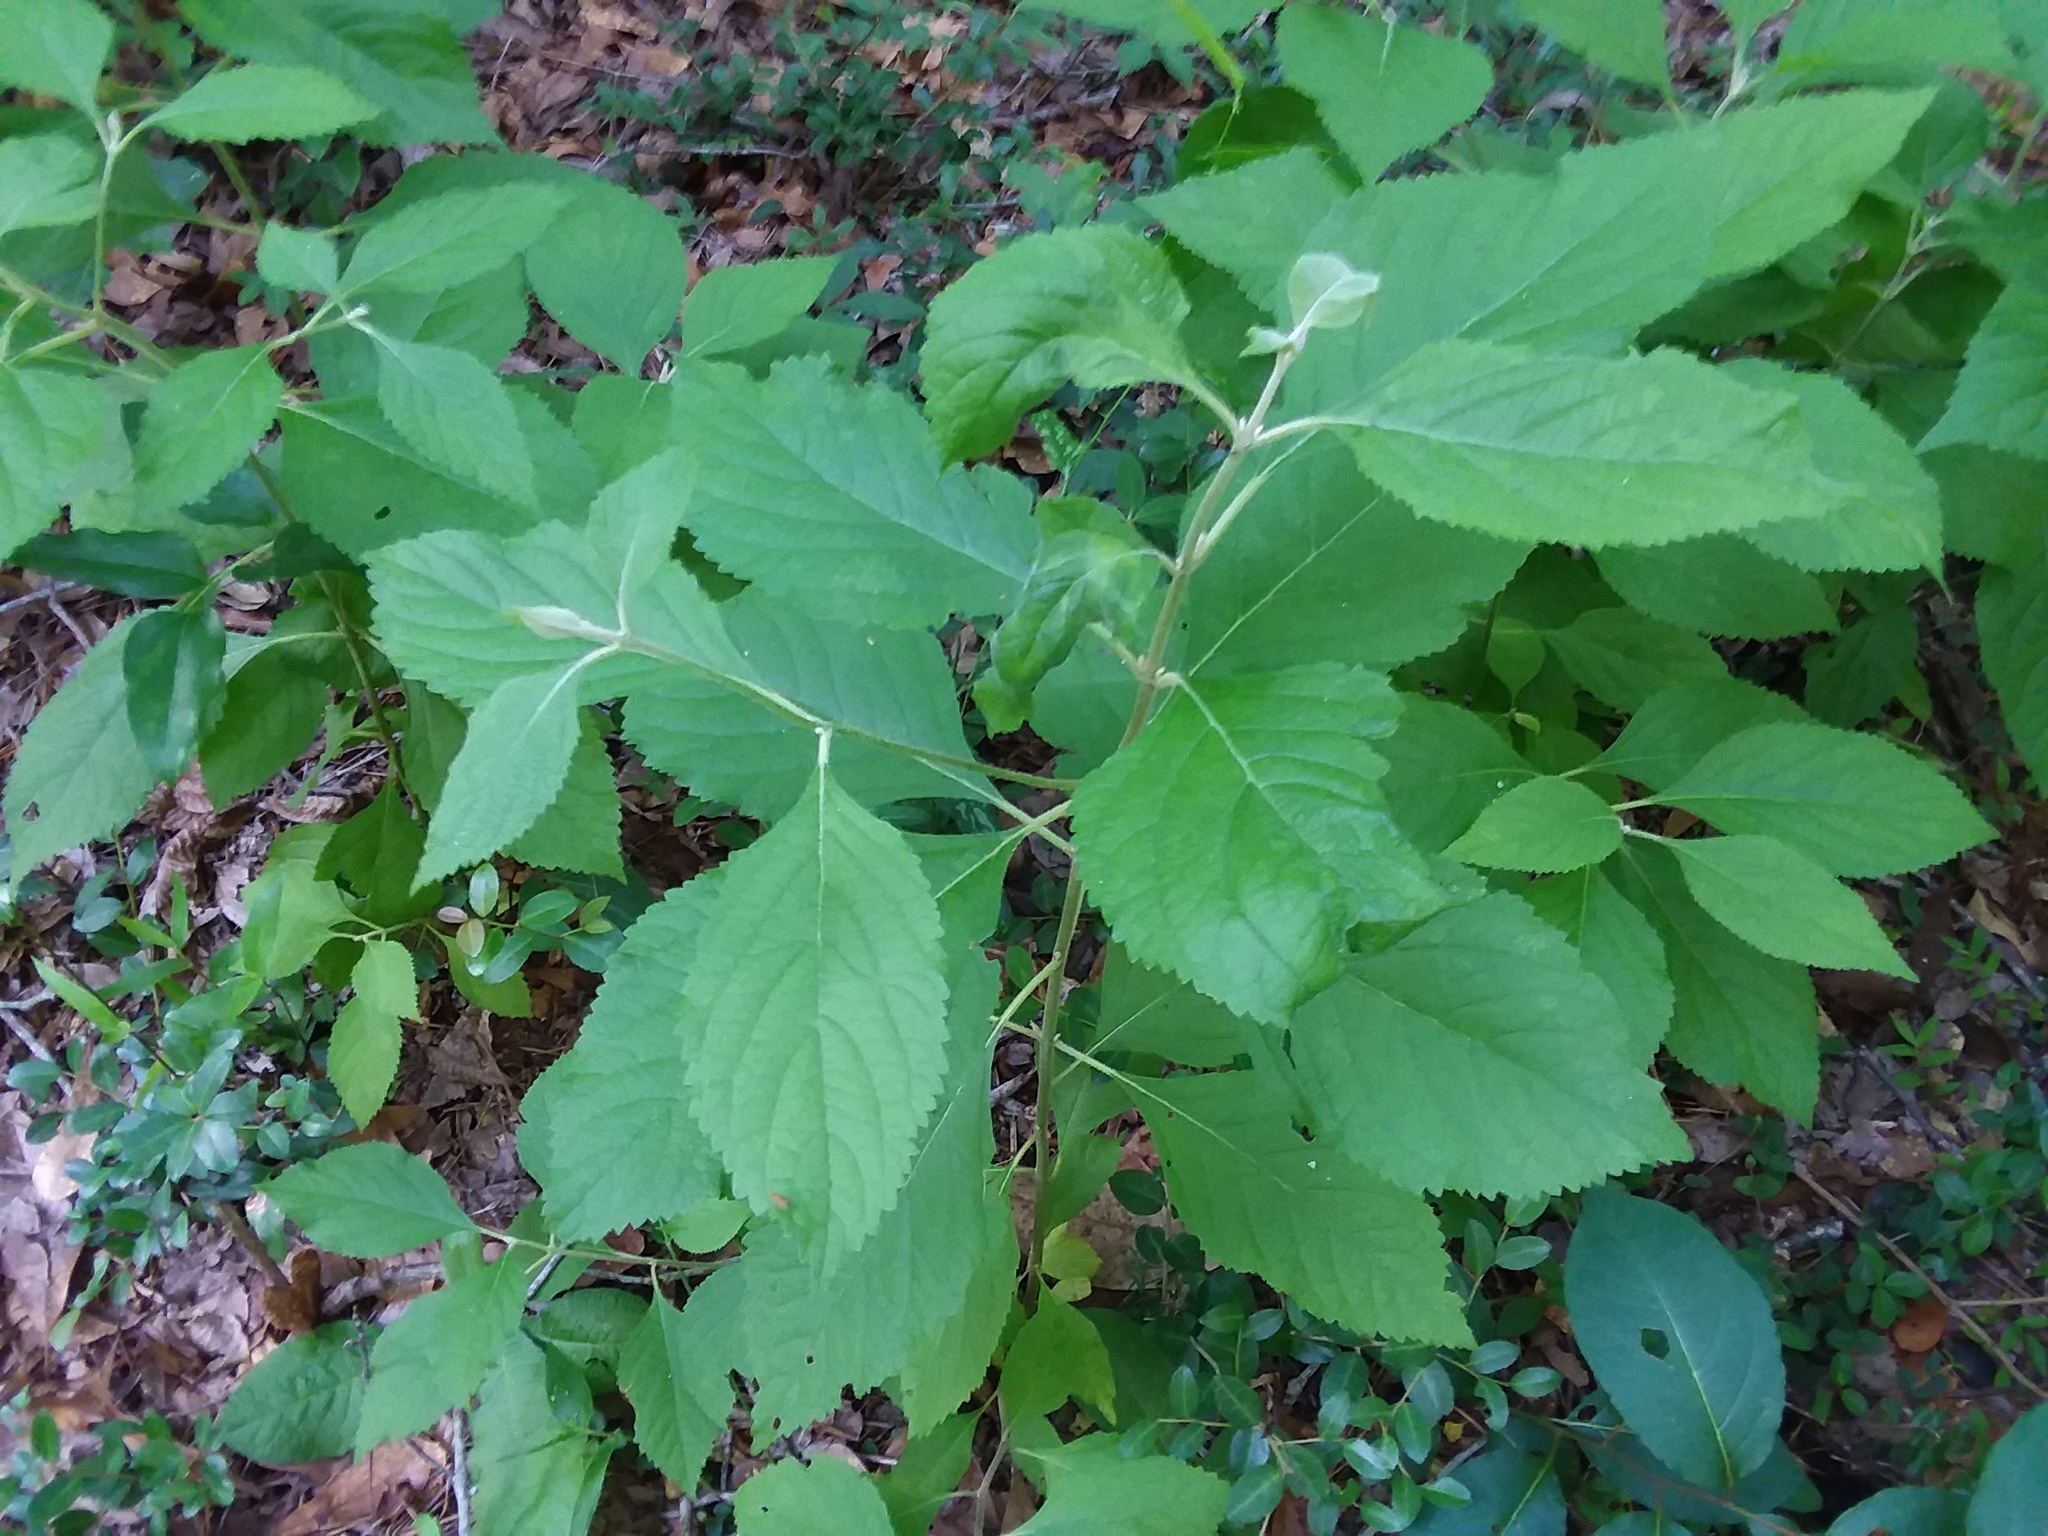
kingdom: Plantae
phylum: Tracheophyta
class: Magnoliopsida
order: Lamiales
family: Lamiaceae
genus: Callicarpa
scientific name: Callicarpa americana
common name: American beautyberry
